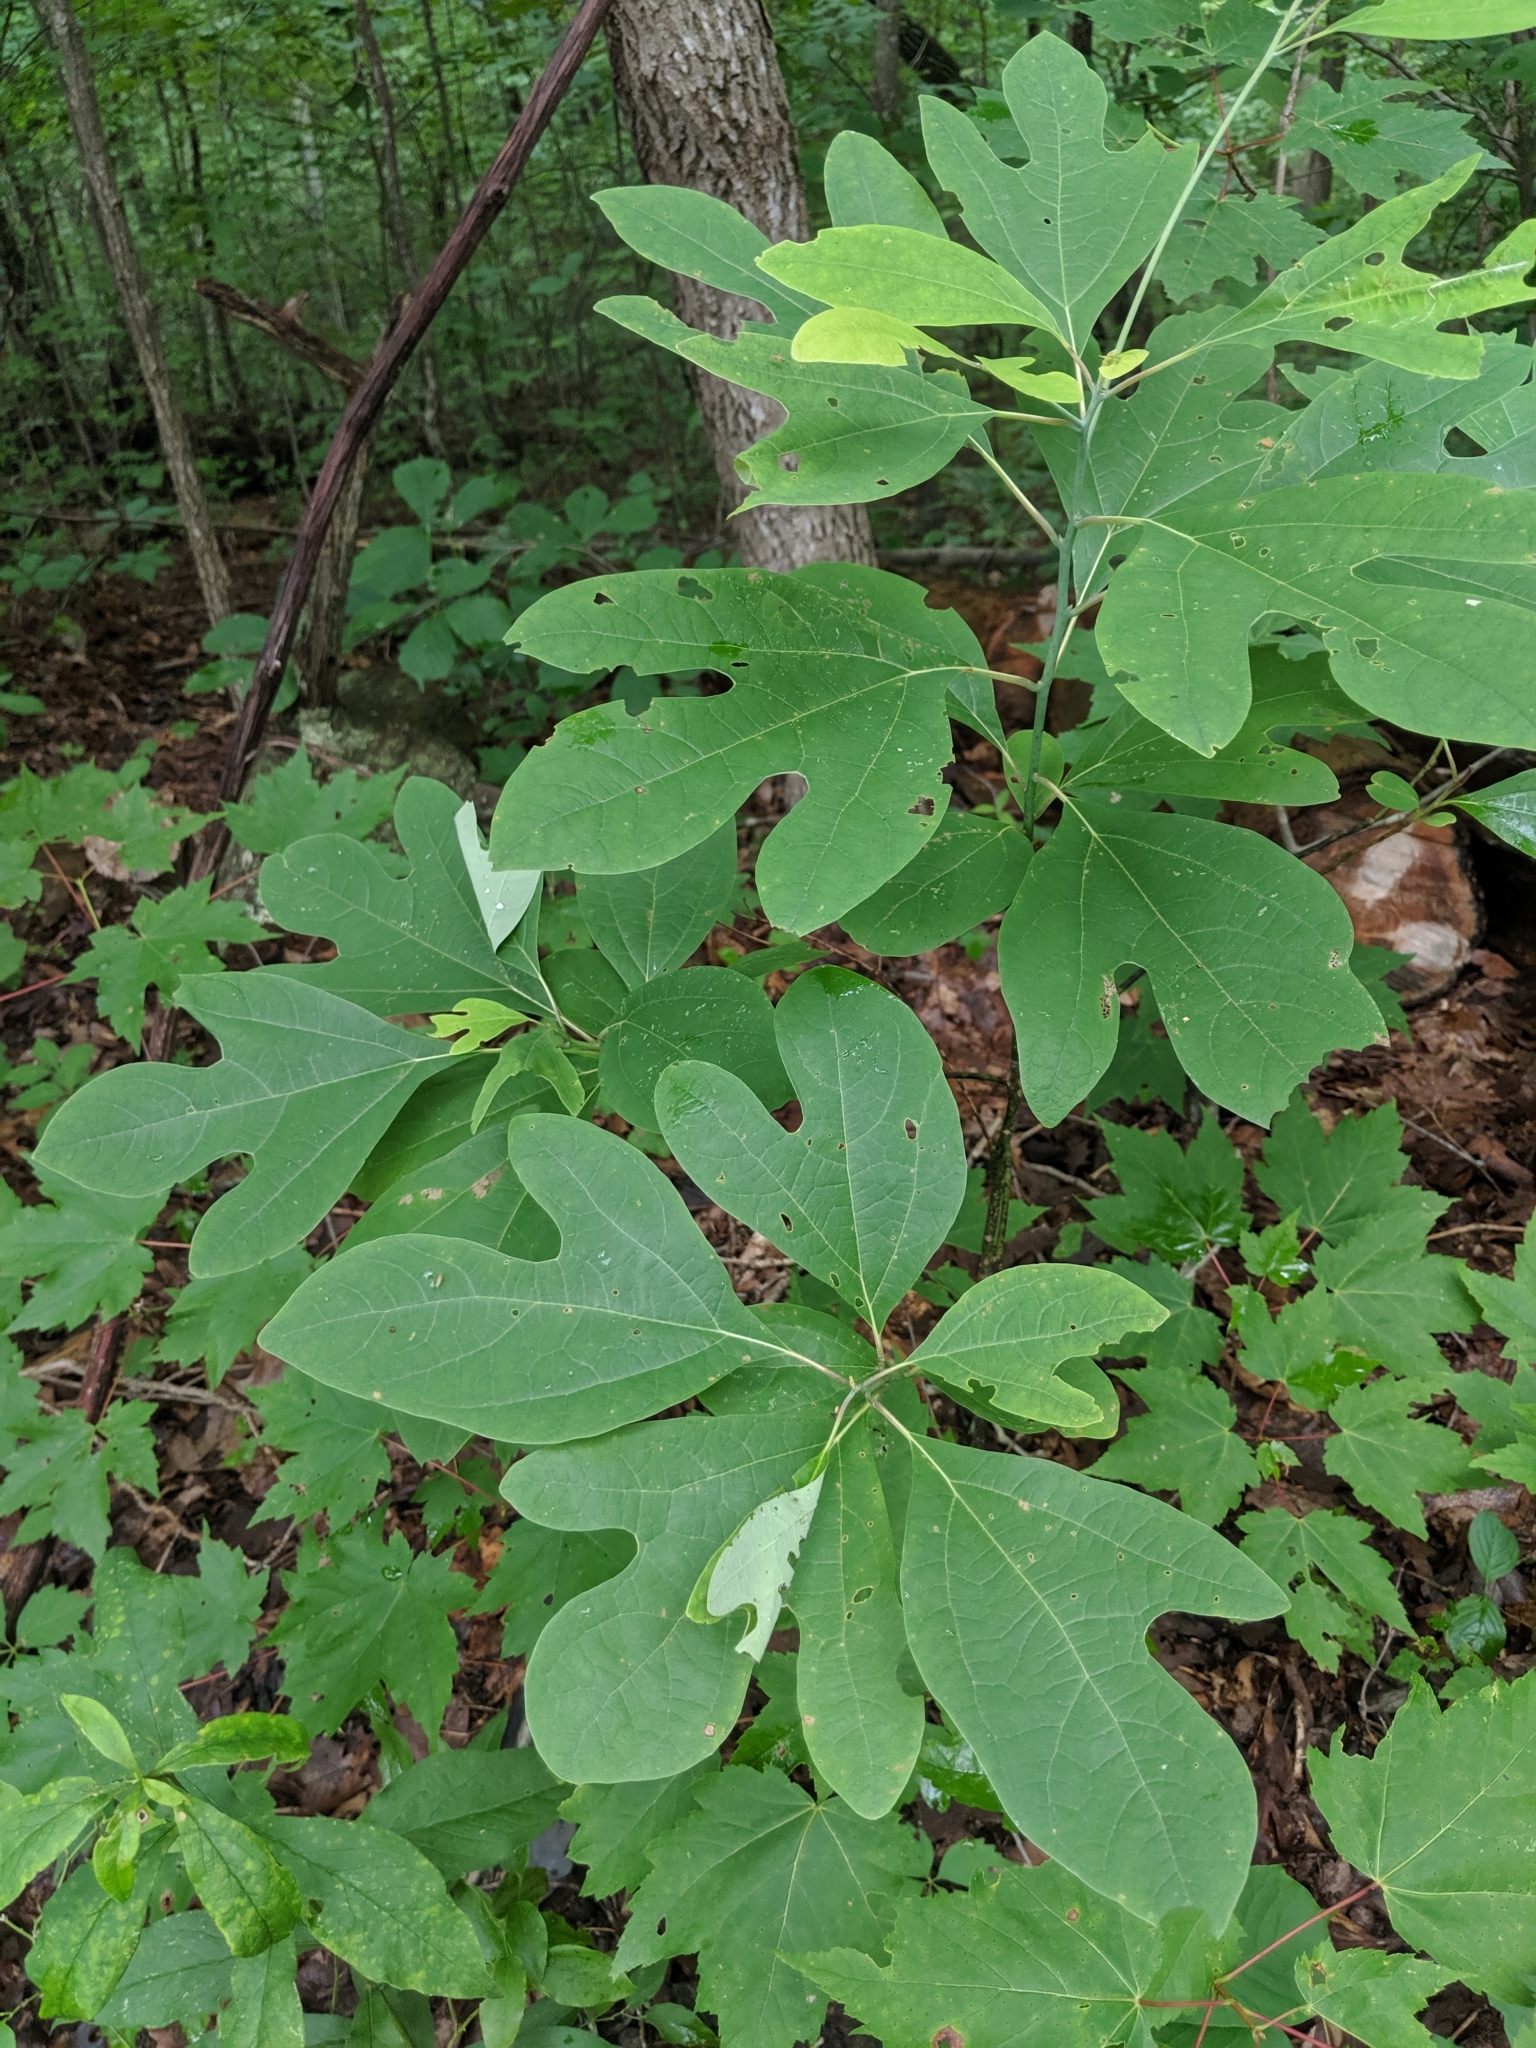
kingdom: Plantae
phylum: Tracheophyta
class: Magnoliopsida
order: Laurales
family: Lauraceae
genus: Sassafras
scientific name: Sassafras albidum
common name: Sassafras
